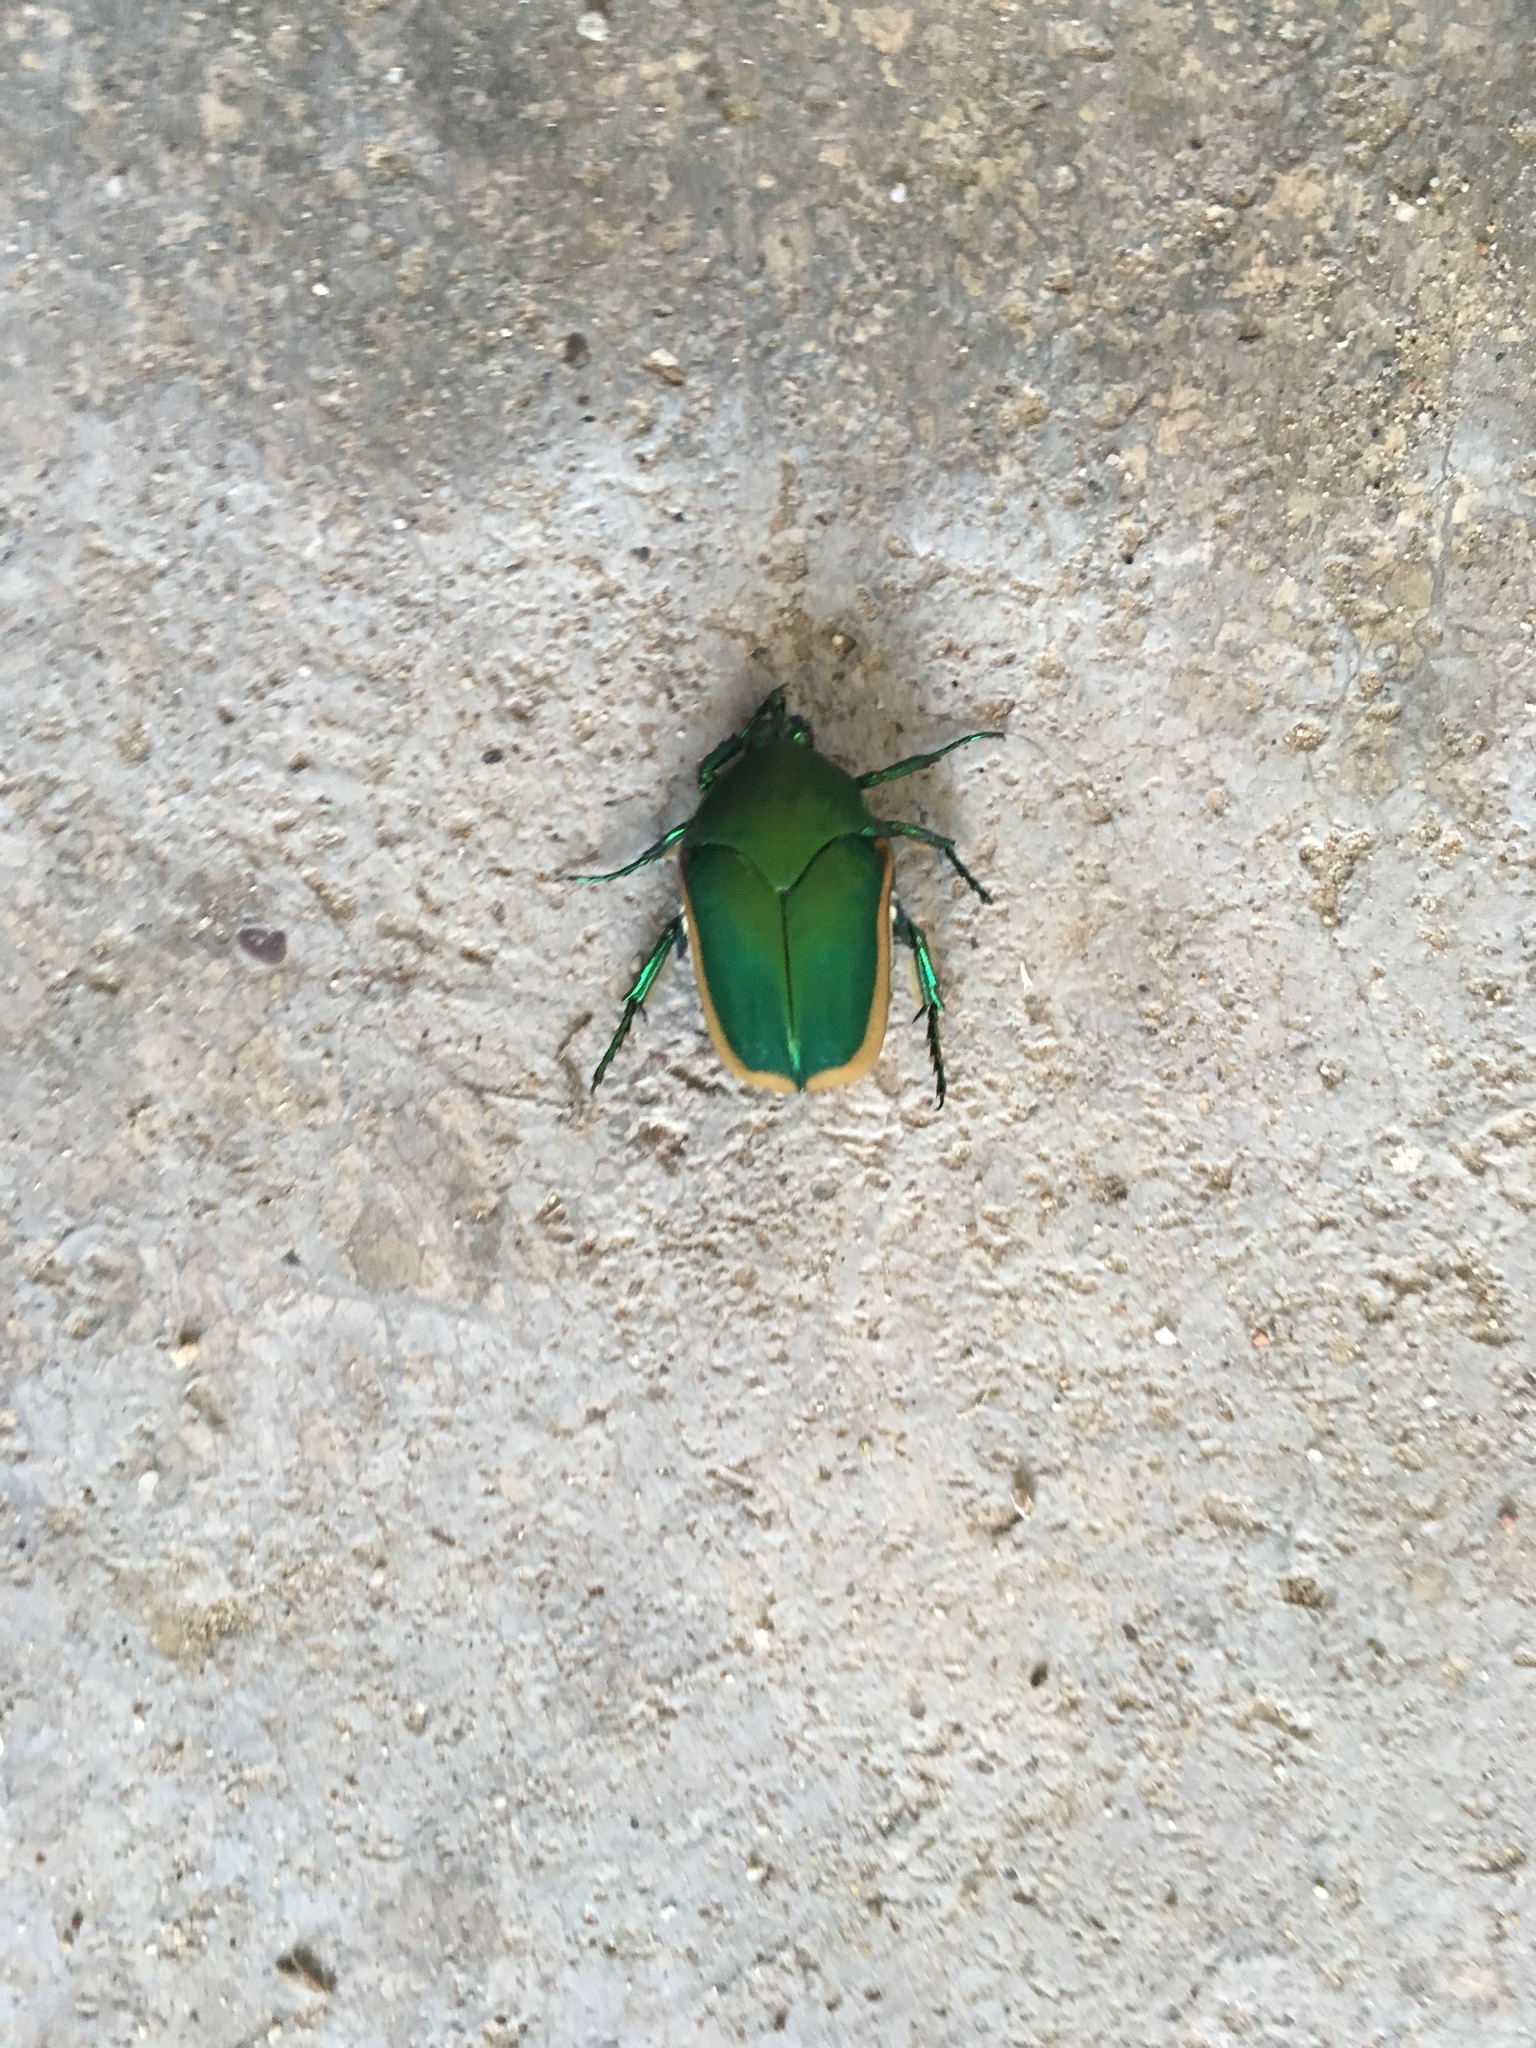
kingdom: Animalia
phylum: Arthropoda
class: Insecta
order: Coleoptera
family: Scarabaeidae
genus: Cotinis
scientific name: Cotinis mutabilis
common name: Figeater beetle
